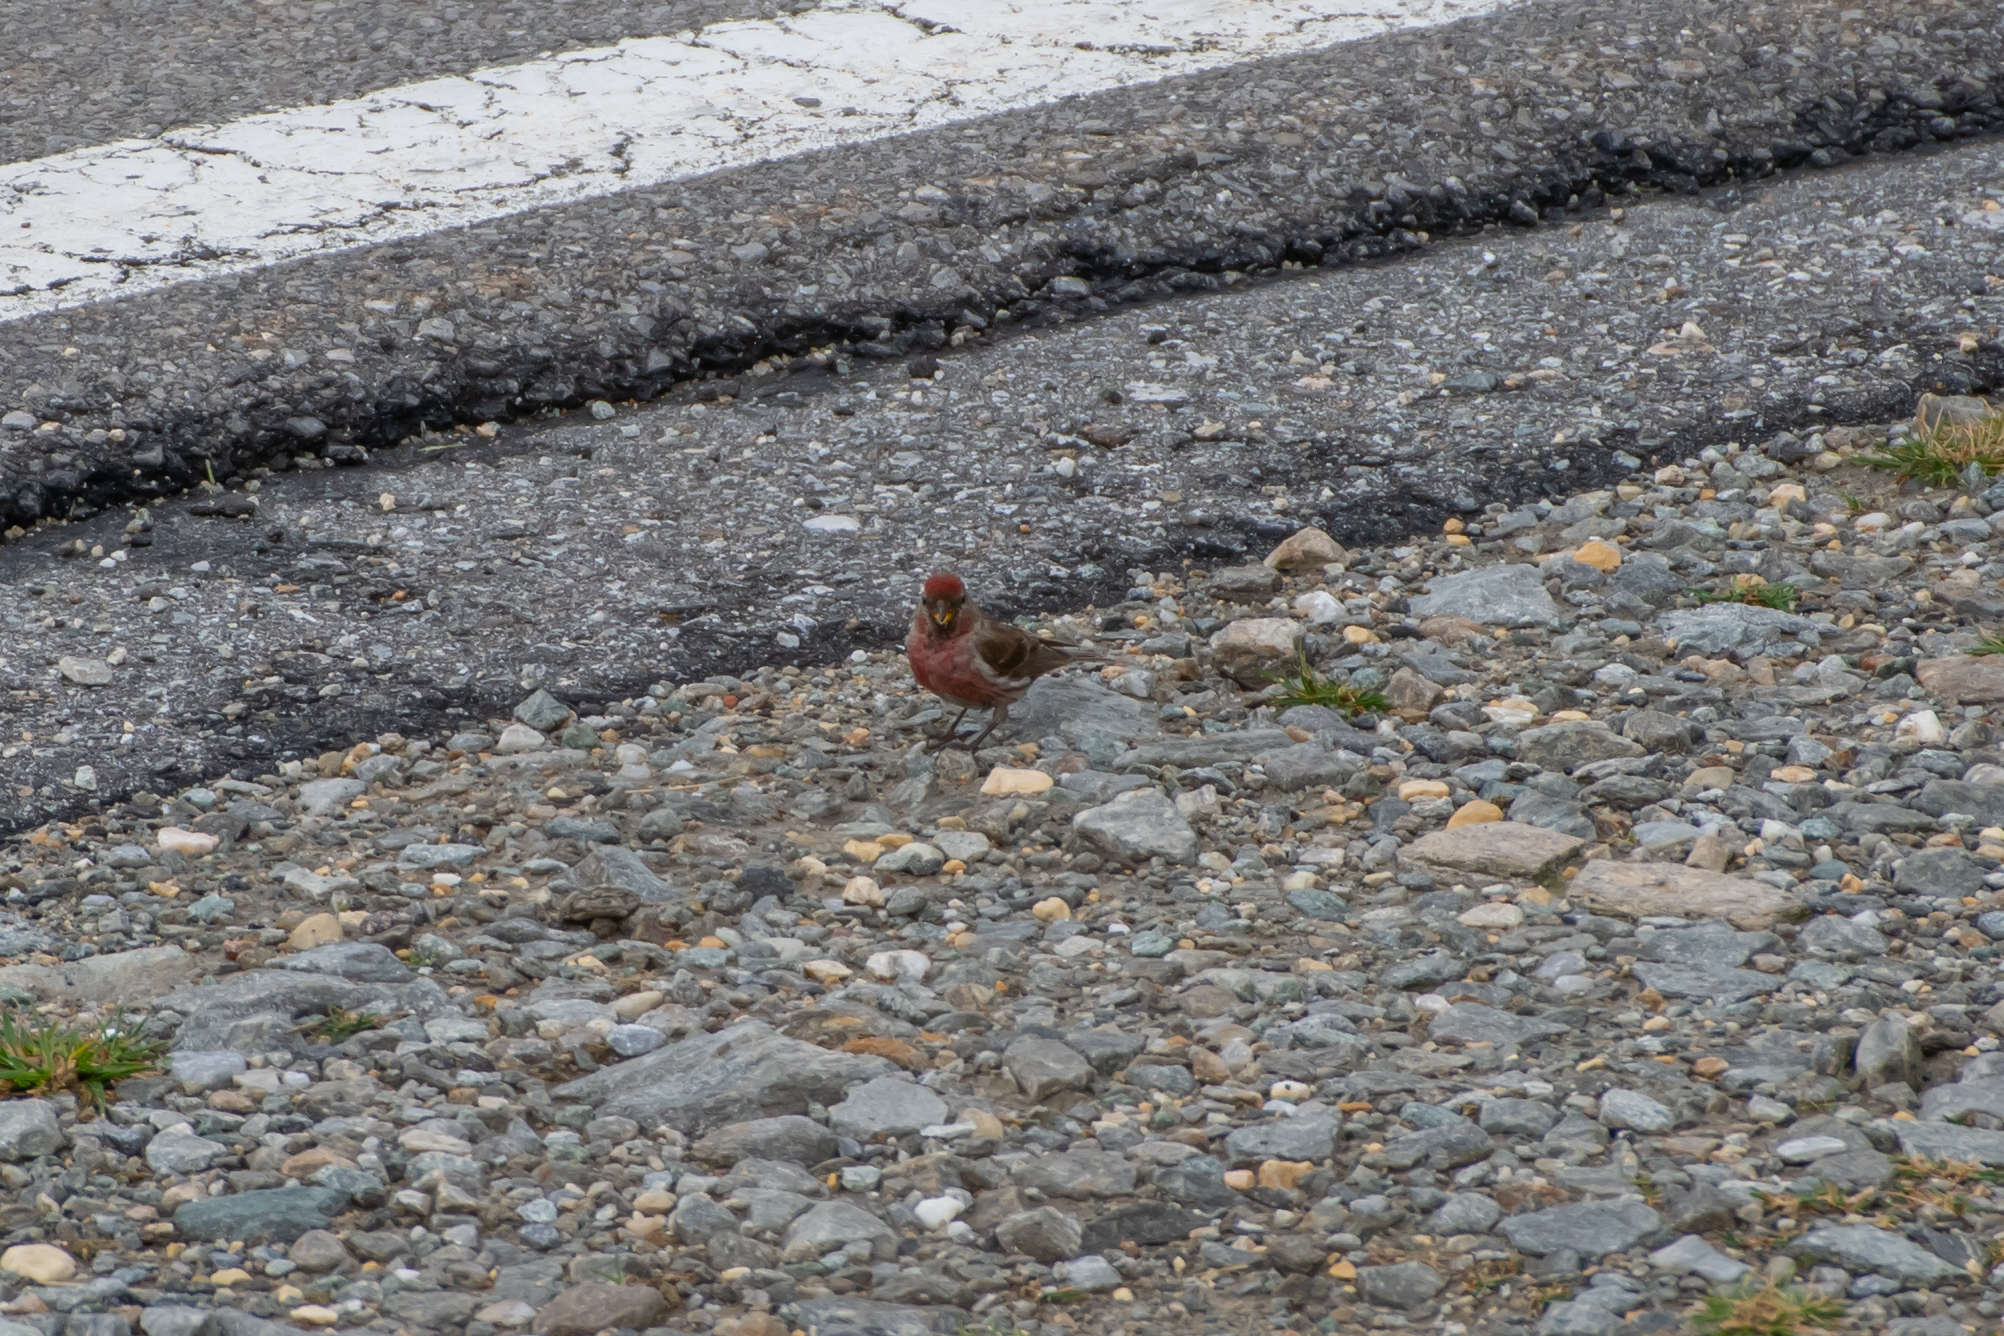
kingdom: Animalia
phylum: Chordata
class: Aves
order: Passeriformes
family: Fringillidae
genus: Acanthis
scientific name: Acanthis flammea
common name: Common redpoll
